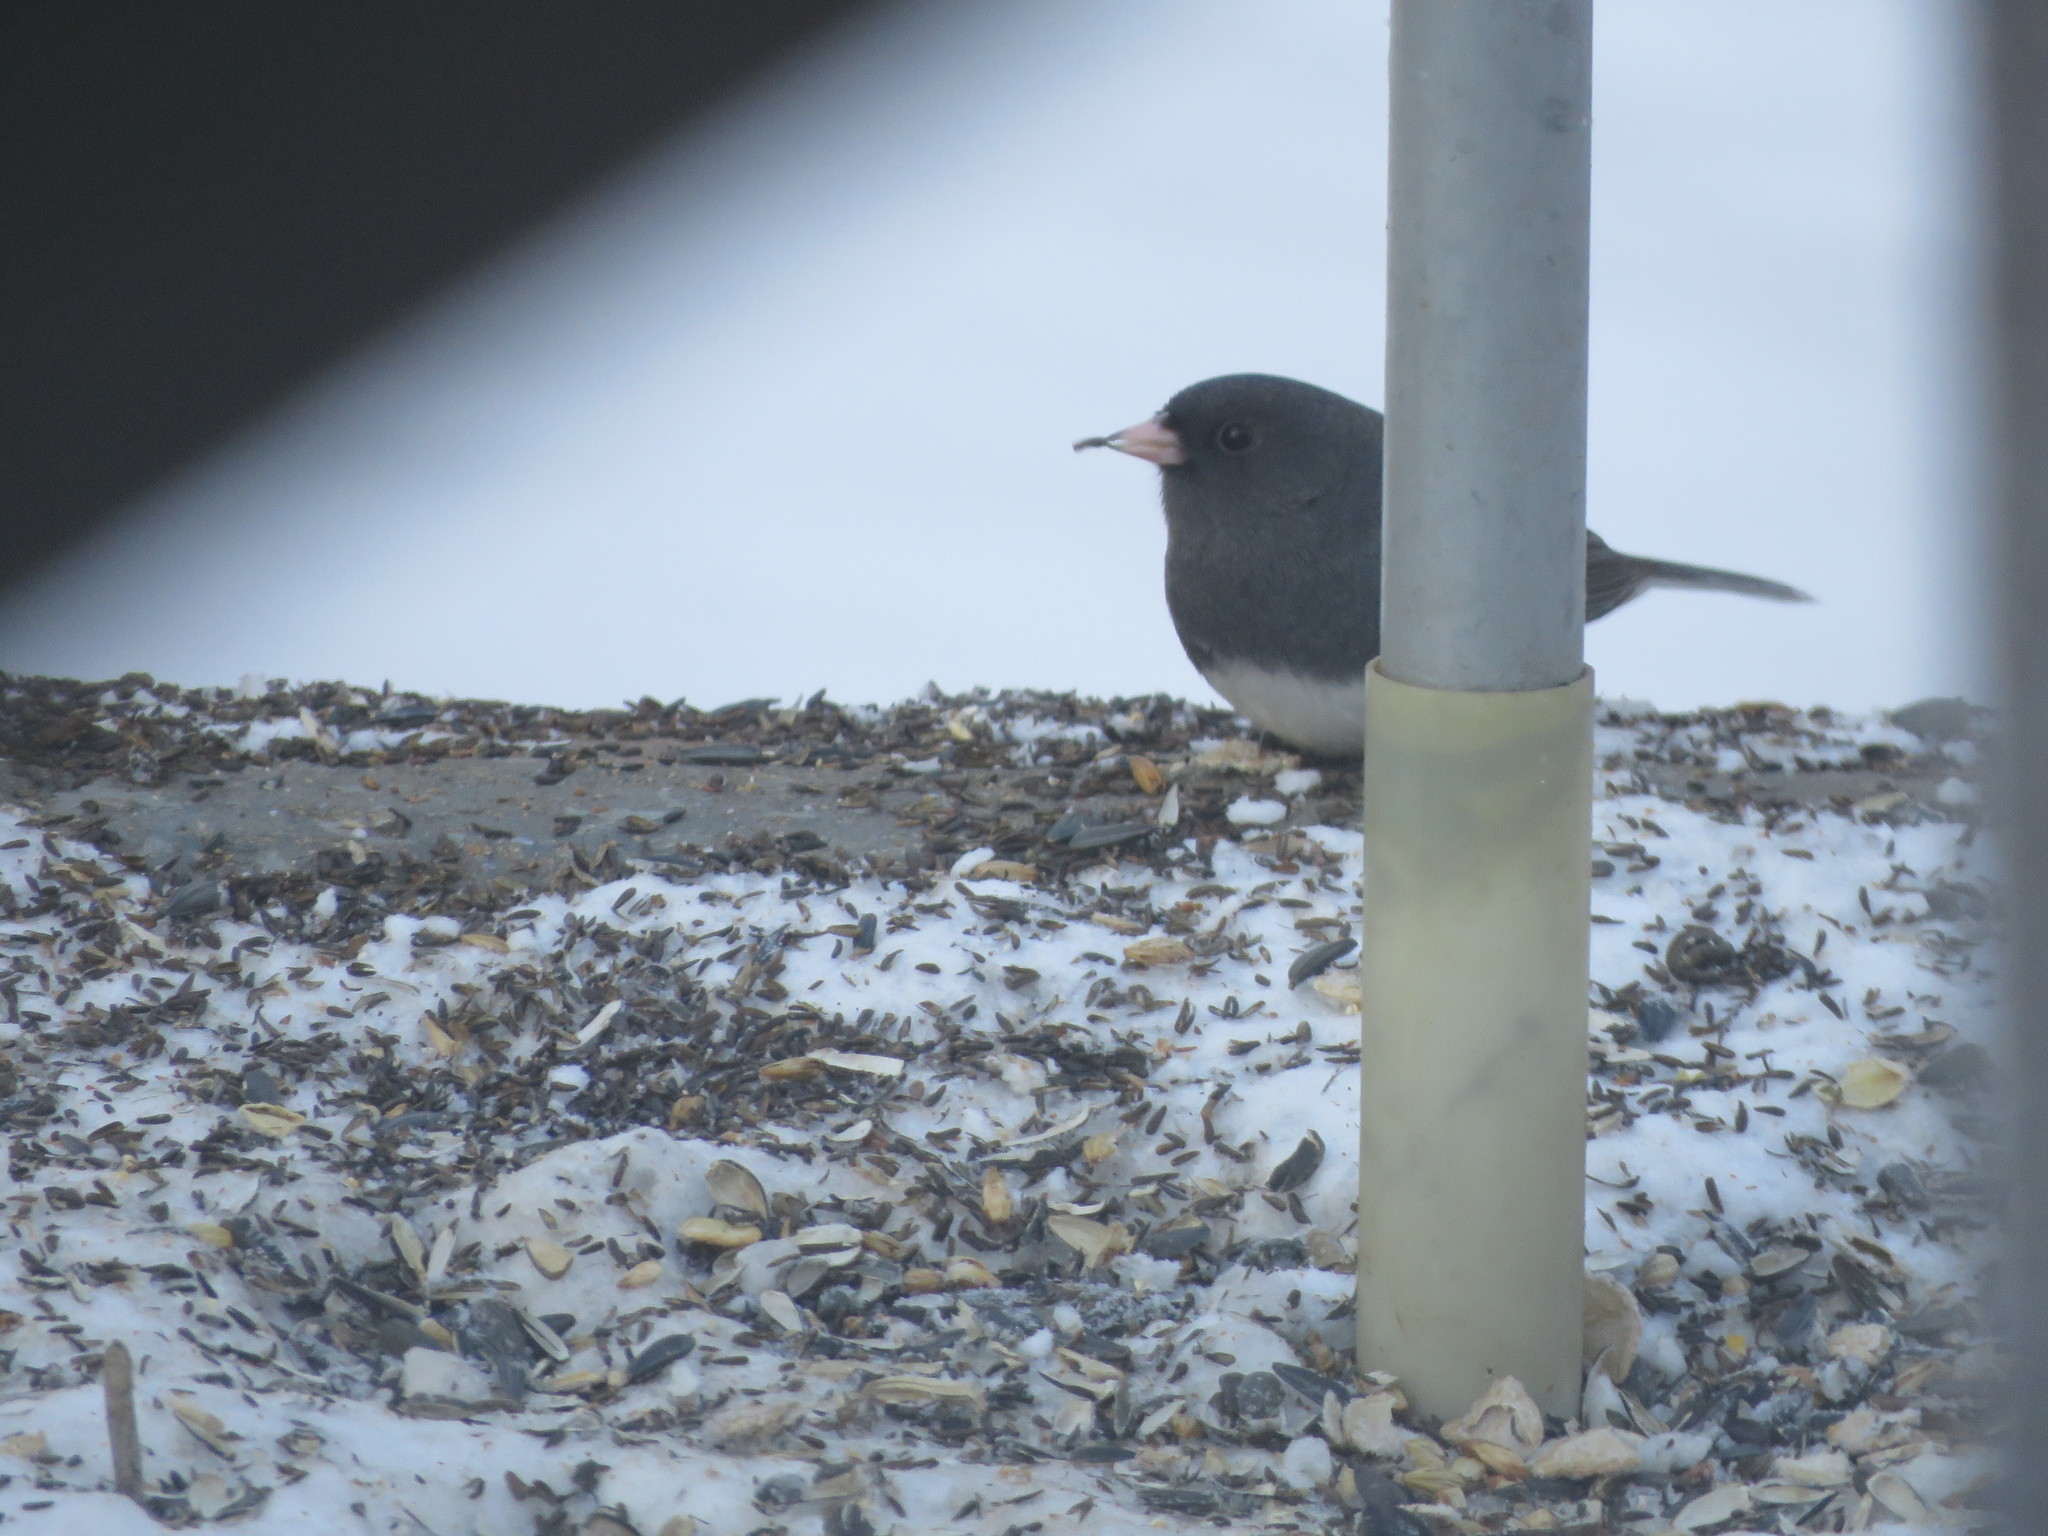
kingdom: Animalia
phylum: Chordata
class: Aves
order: Passeriformes
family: Passerellidae
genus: Junco
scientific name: Junco hyemalis
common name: Dark-eyed junco
